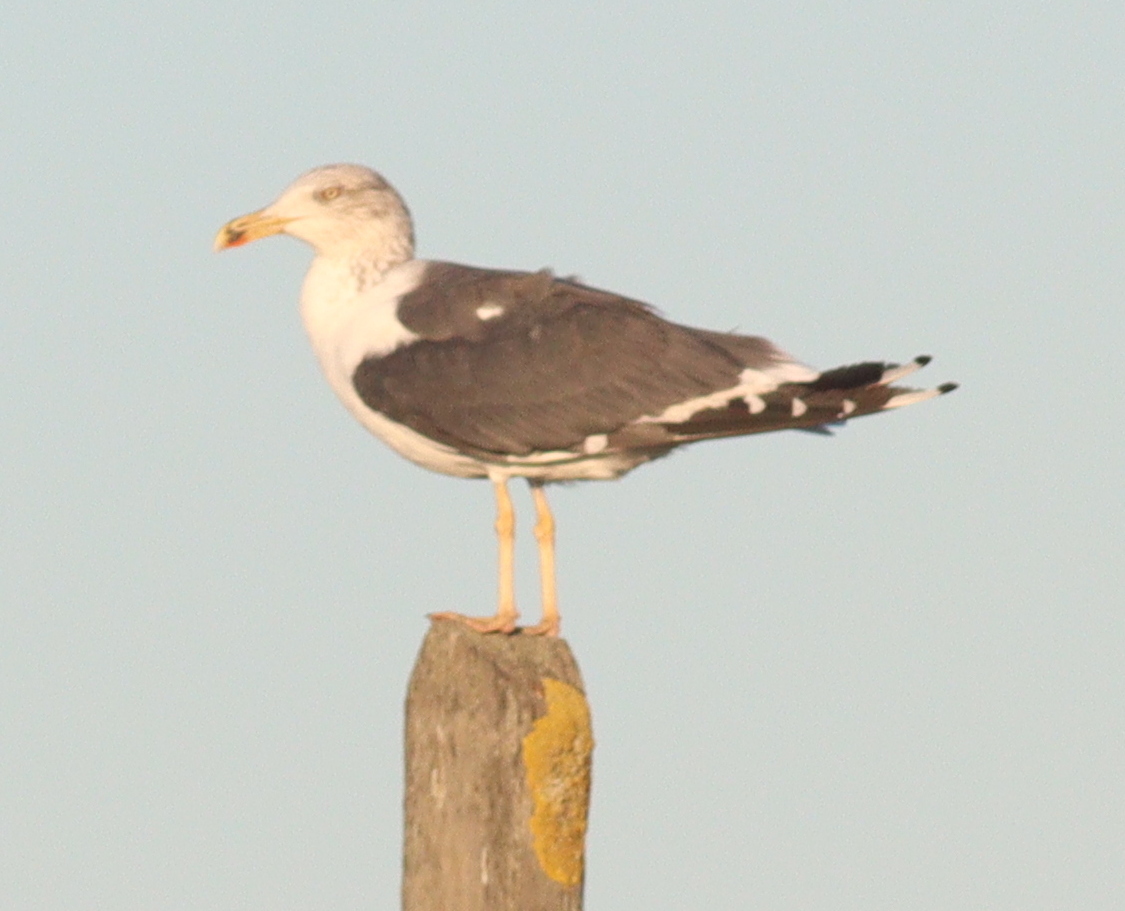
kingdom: Animalia
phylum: Chordata
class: Aves
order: Charadriiformes
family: Laridae
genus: Larus
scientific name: Larus fuscus
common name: Lesser black-backed gull
